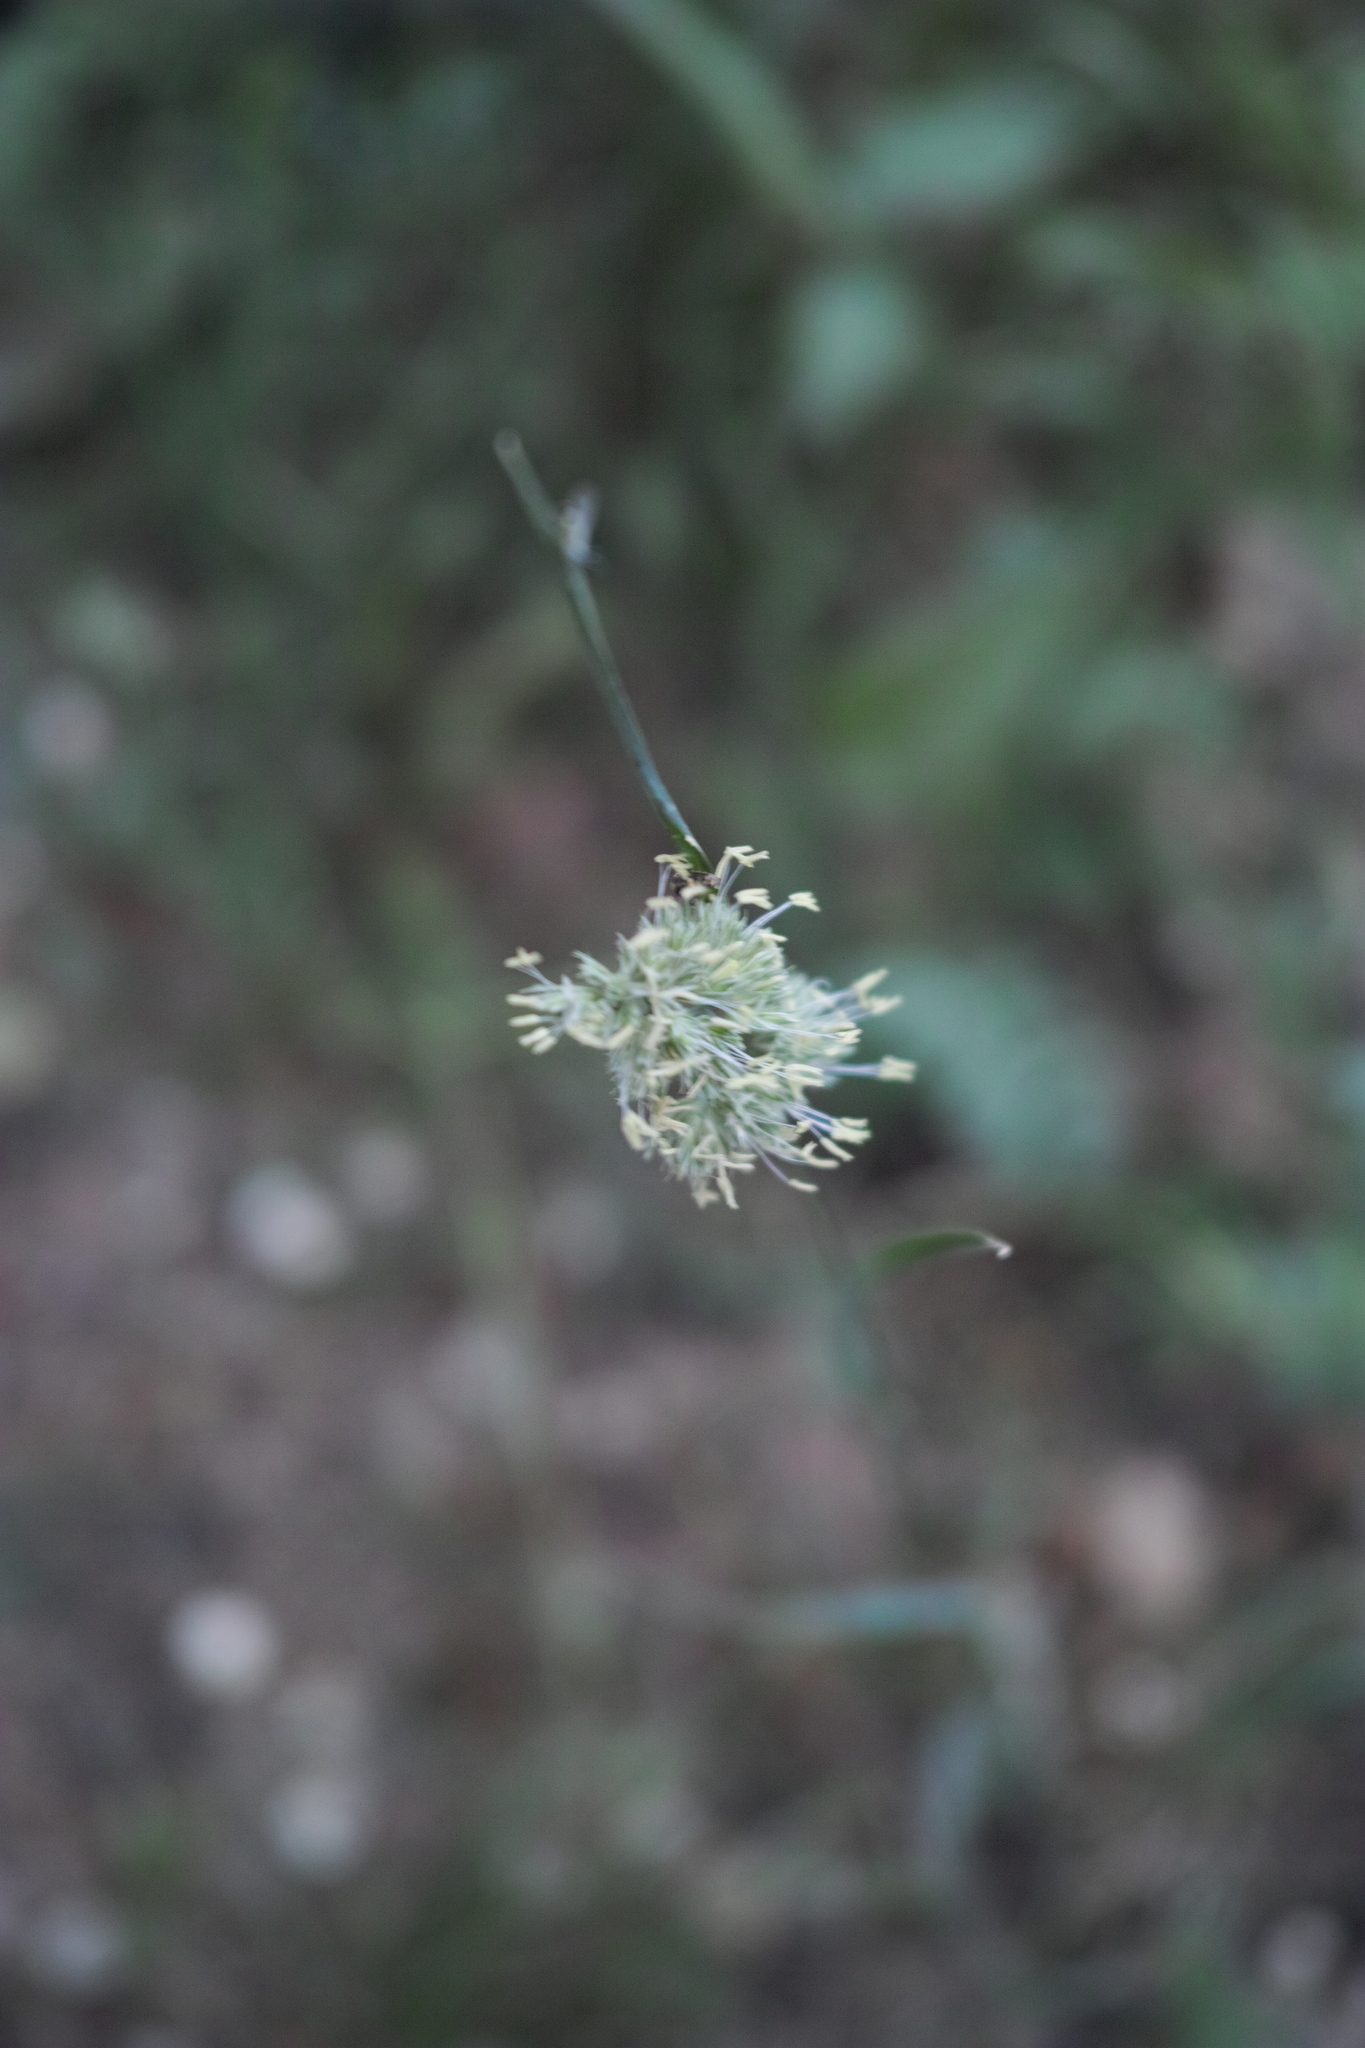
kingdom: Plantae
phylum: Tracheophyta
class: Liliopsida
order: Poales
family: Poaceae
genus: Dactylis
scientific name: Dactylis glomerata
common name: Orchardgrass
